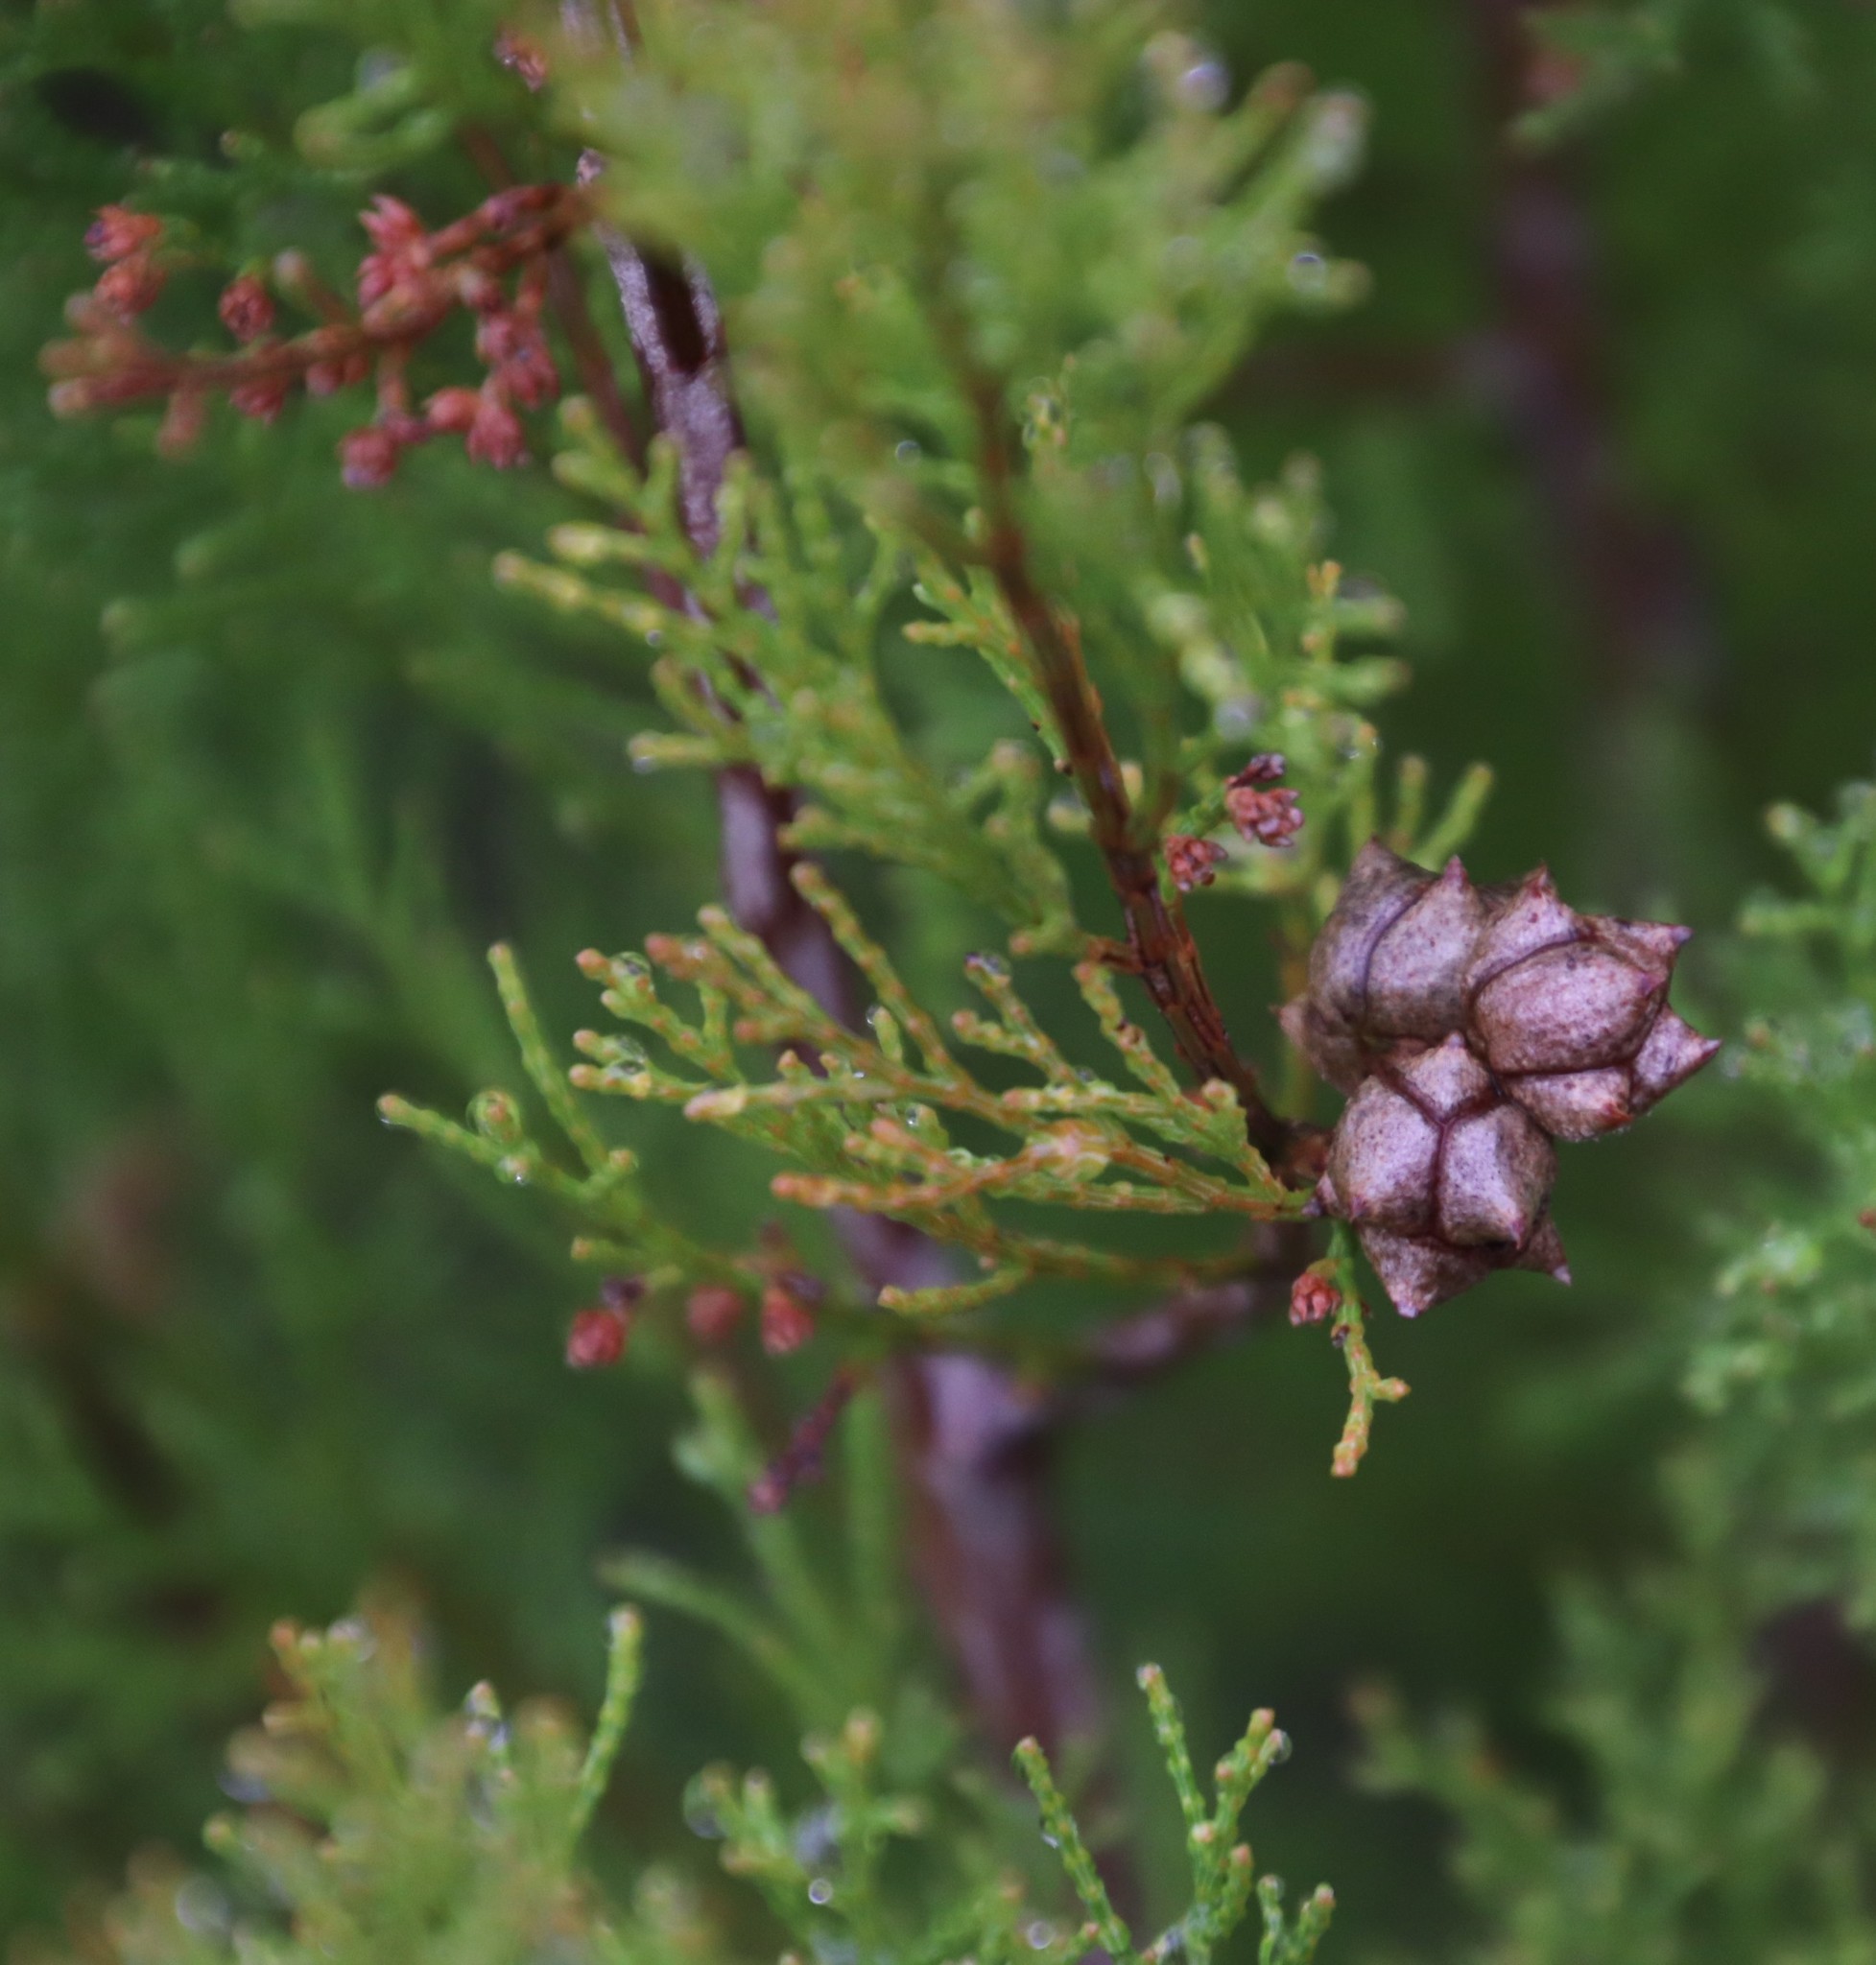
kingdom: Plantae
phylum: Tracheophyta
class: Pinopsida
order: Pinales
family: Cupressaceae
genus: Callitris
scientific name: Callitris rhomboidea
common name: Illawara mountain pine
